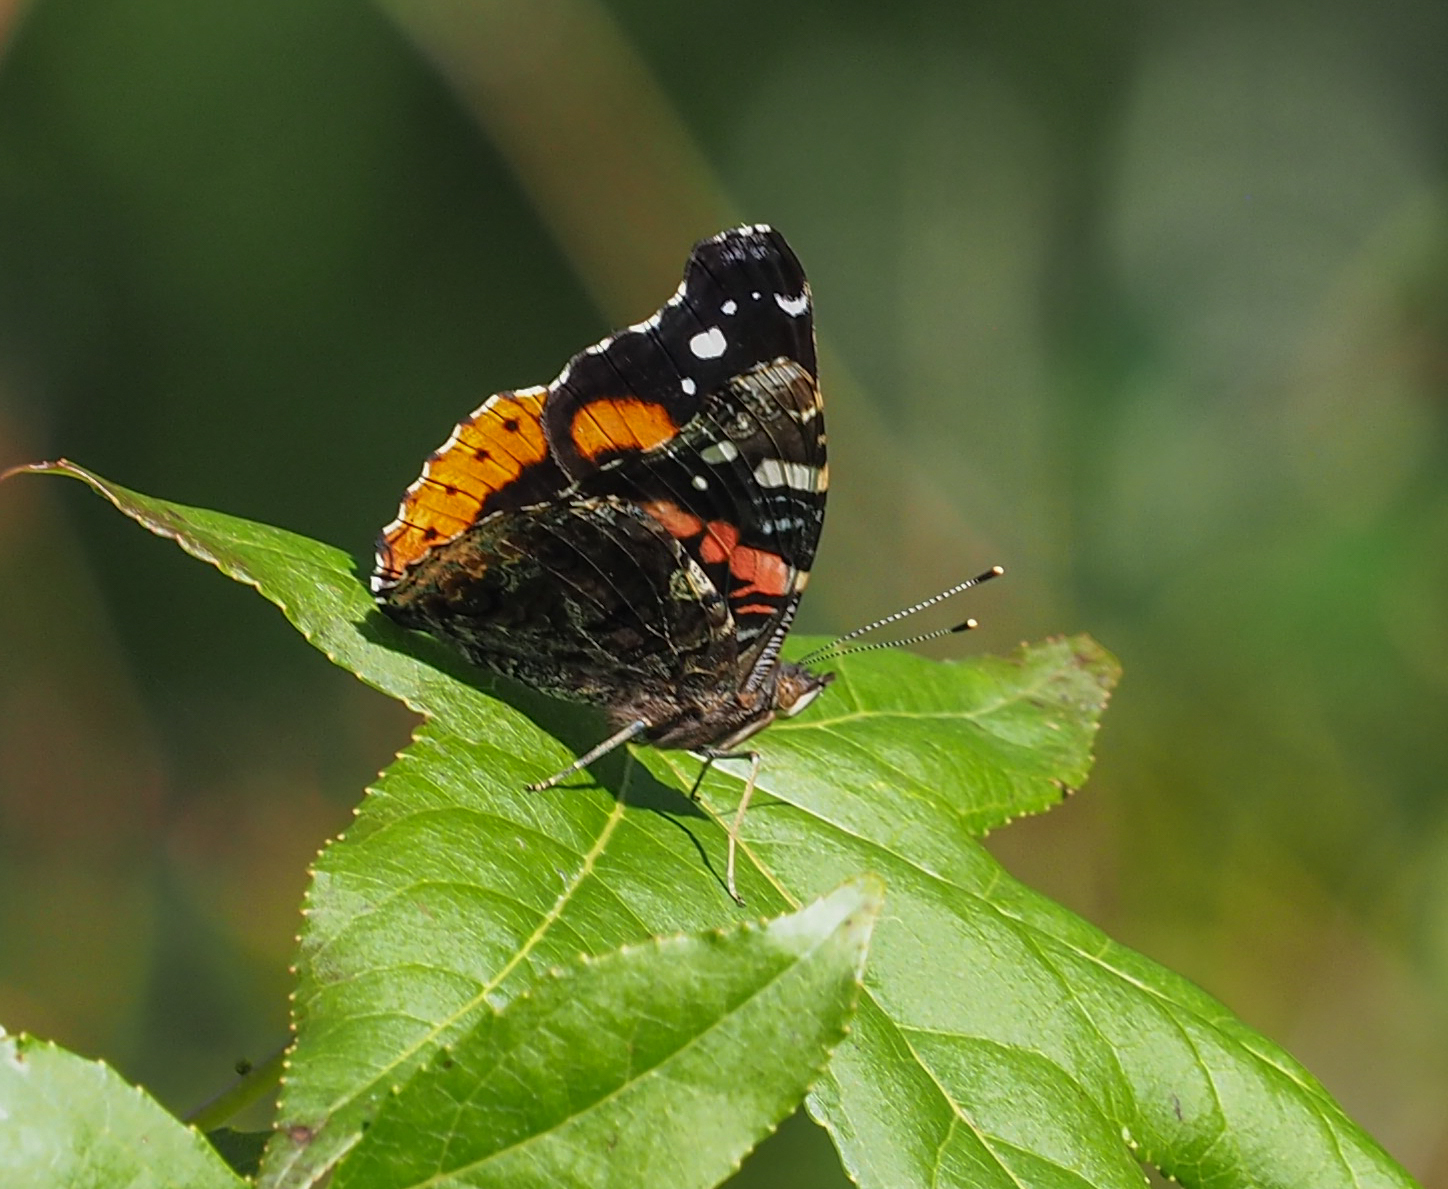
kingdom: Animalia
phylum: Arthropoda
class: Insecta
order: Lepidoptera
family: Nymphalidae
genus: Vanessa
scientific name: Vanessa atalanta
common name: Red admiral
